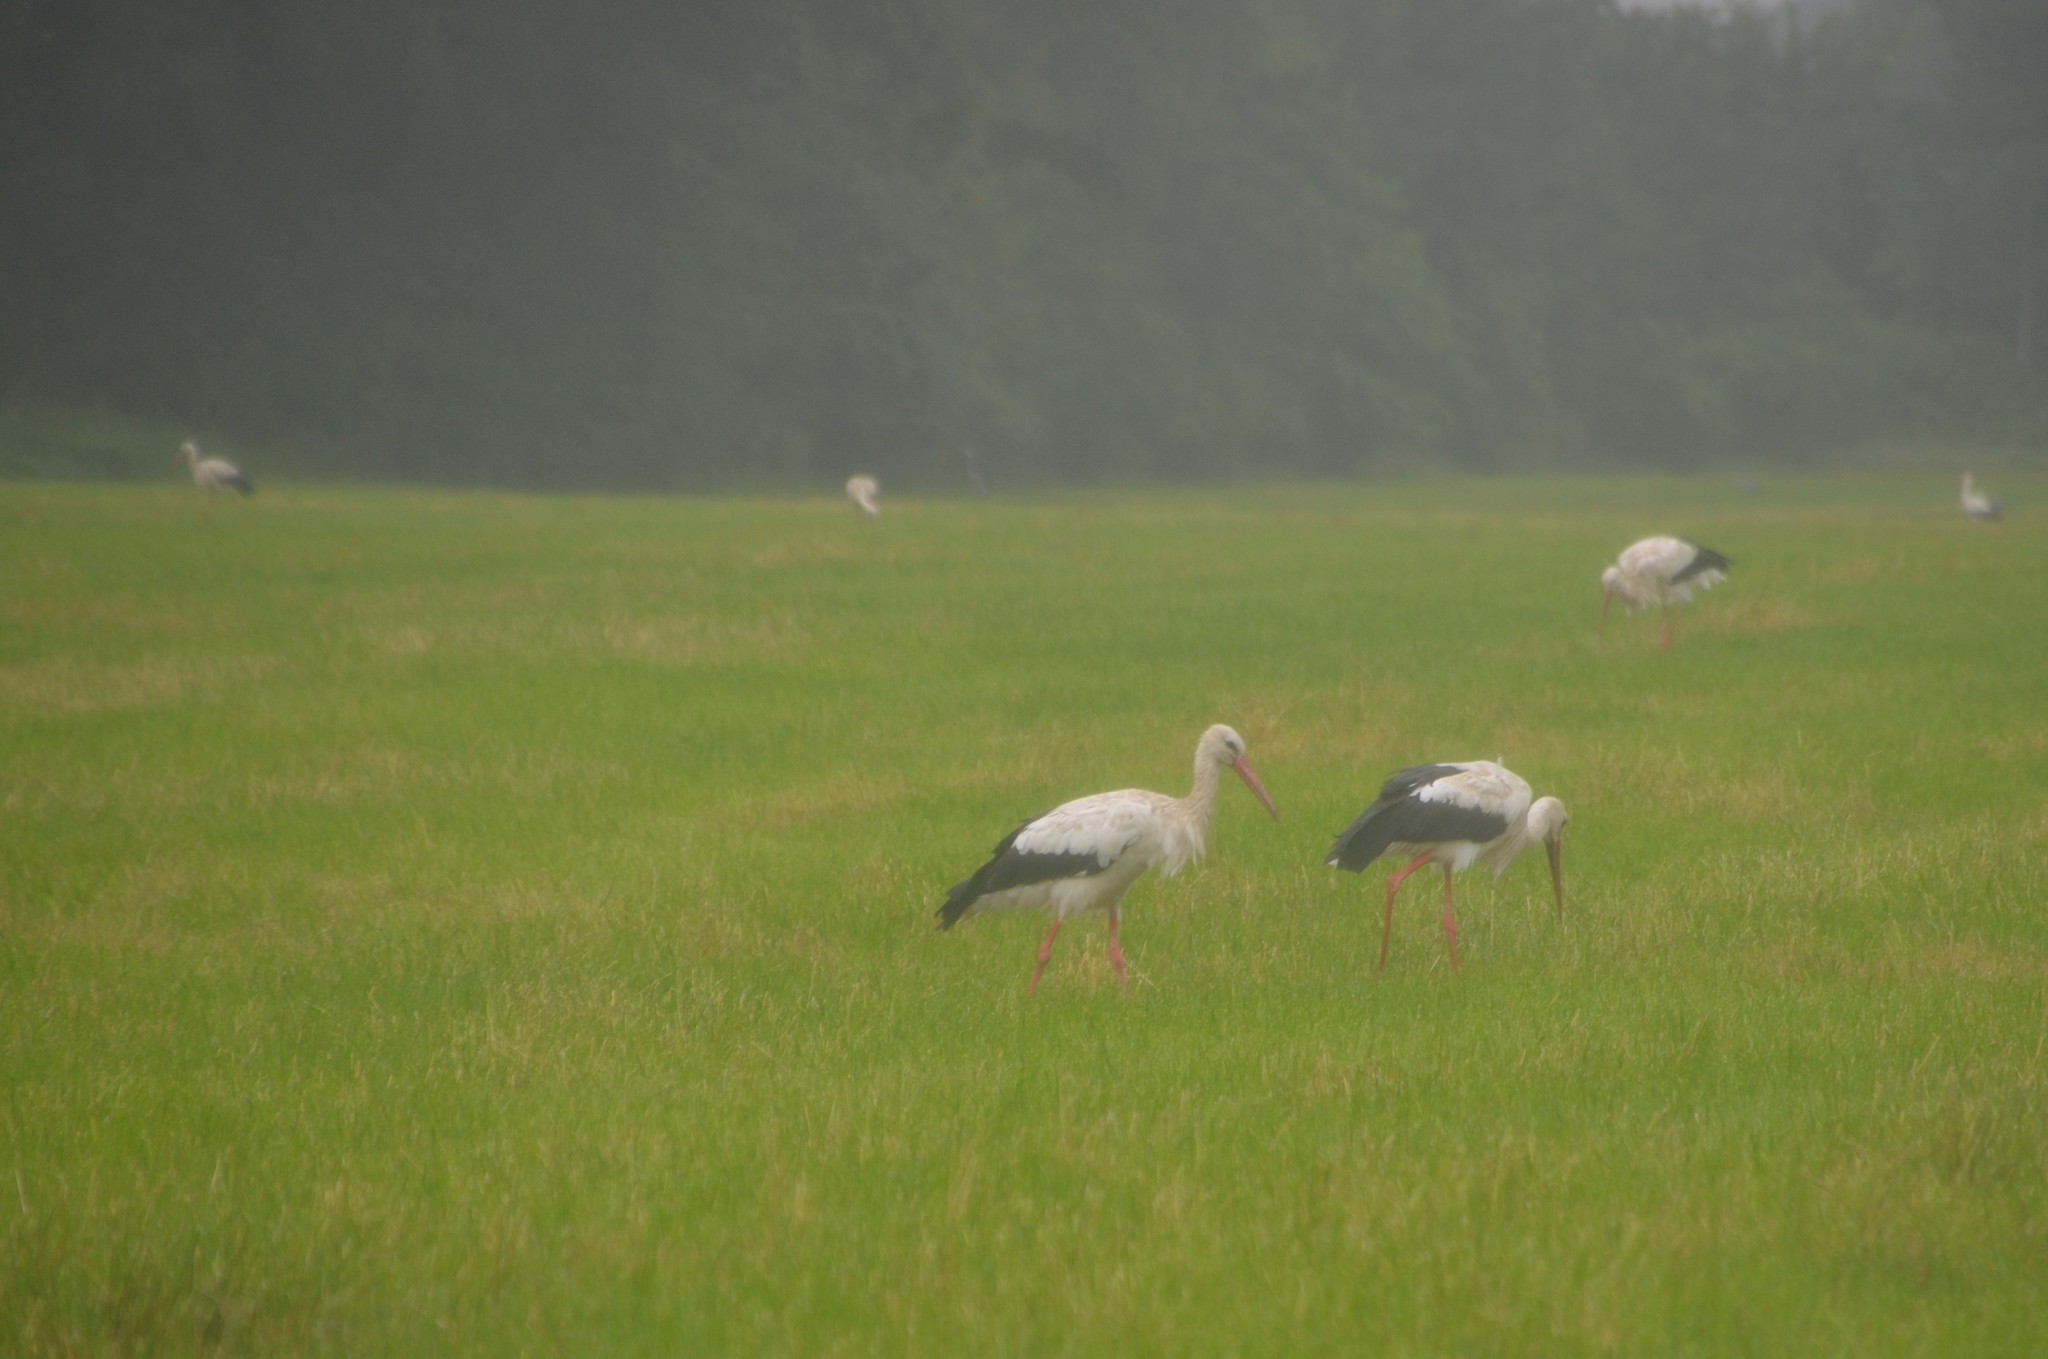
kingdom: Animalia
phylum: Chordata
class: Aves
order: Ciconiiformes
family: Ciconiidae
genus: Ciconia
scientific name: Ciconia ciconia
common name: White stork
